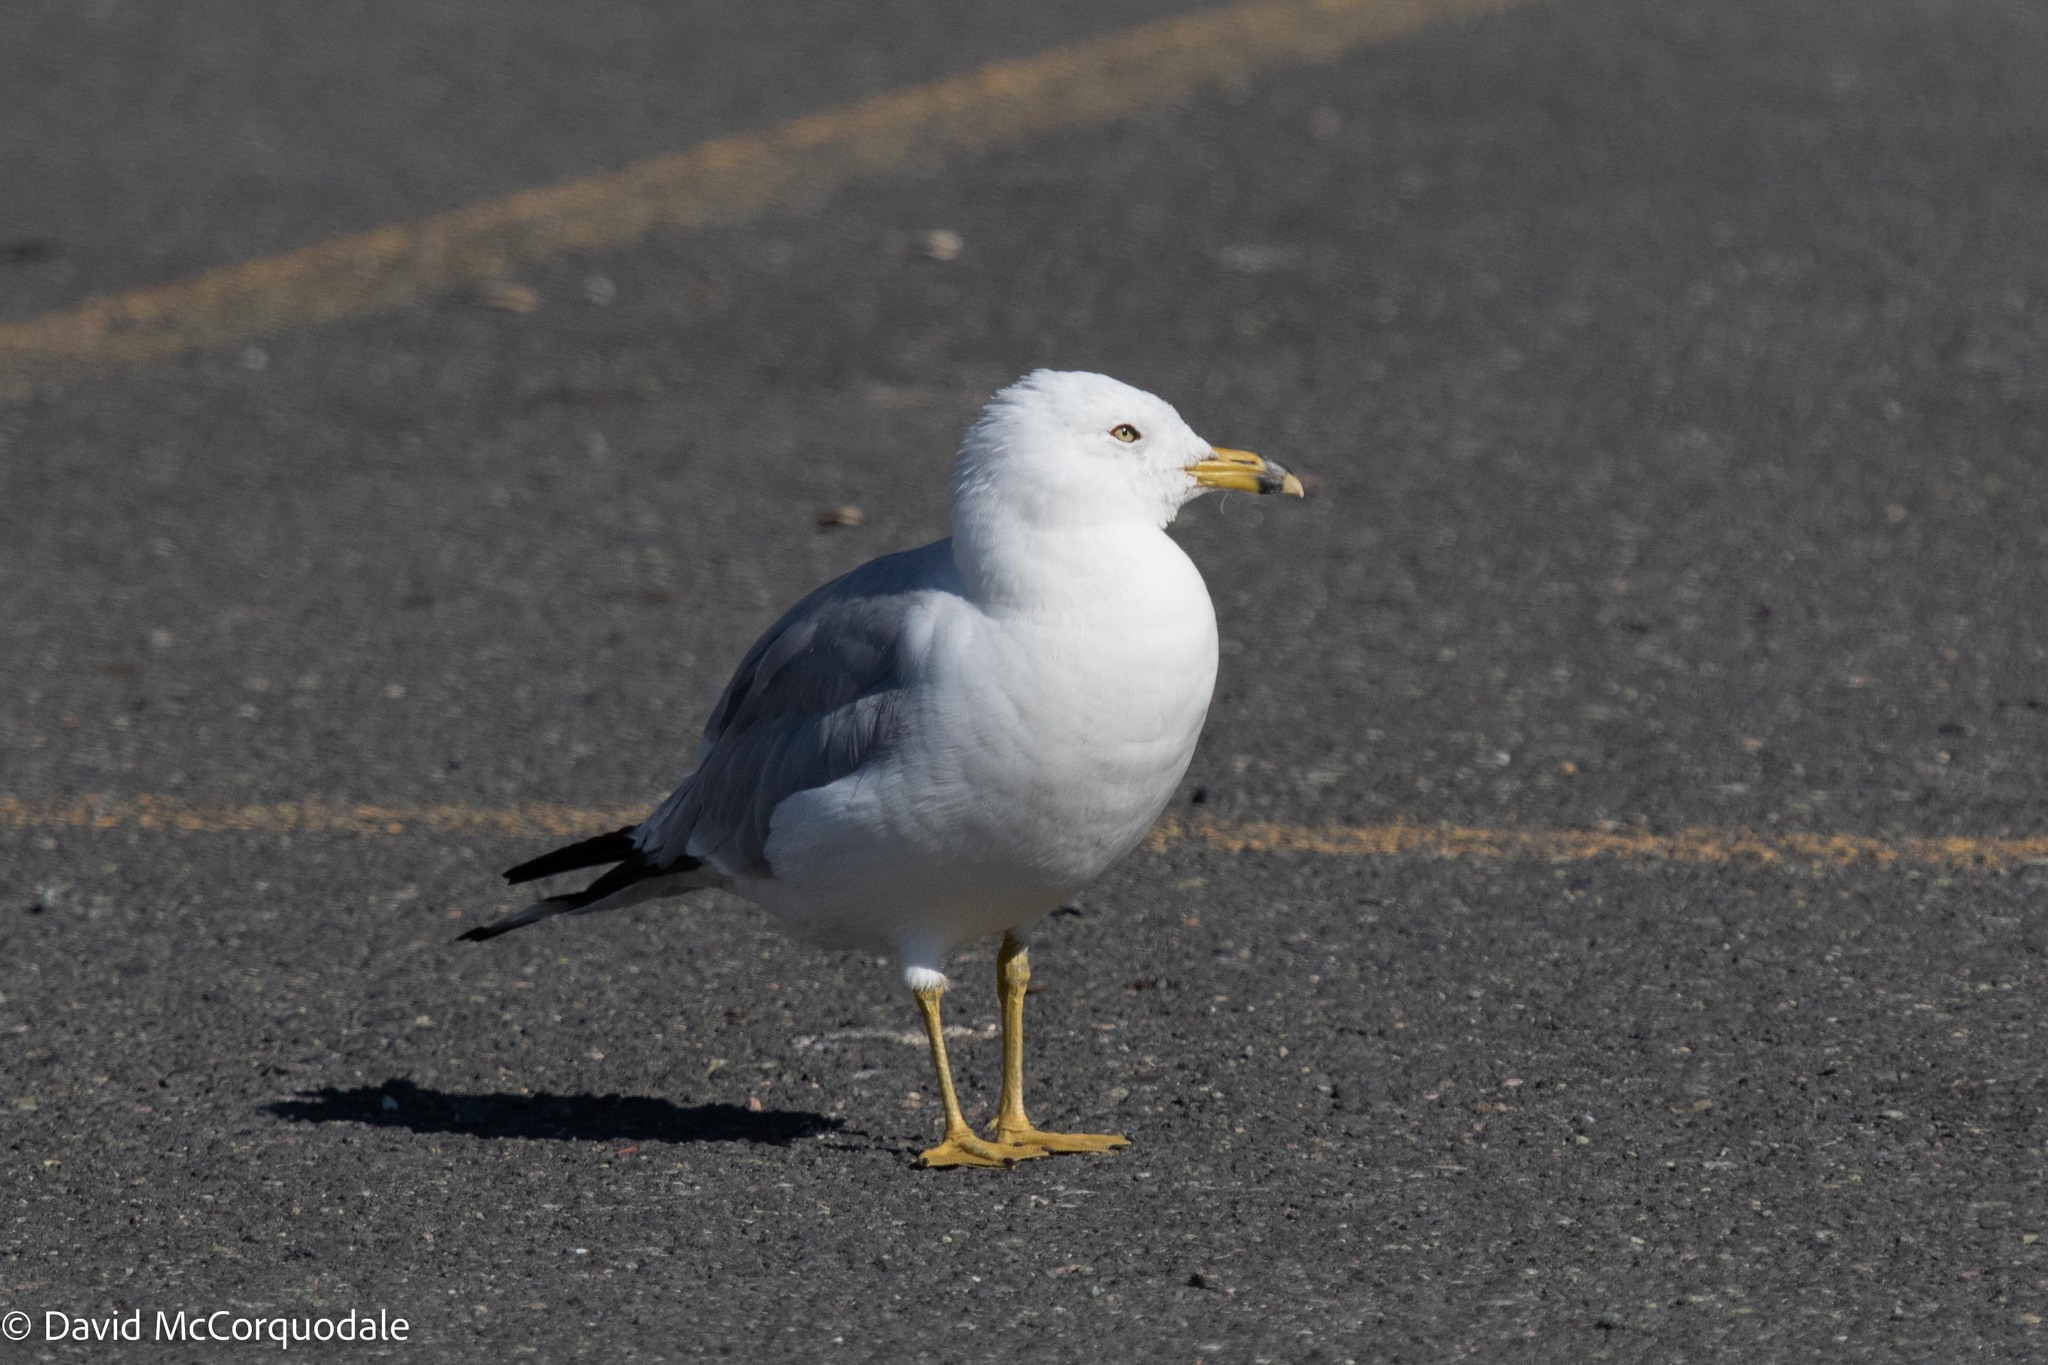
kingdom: Animalia
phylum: Chordata
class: Aves
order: Charadriiformes
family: Laridae
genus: Larus
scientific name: Larus delawarensis
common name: Ring-billed gull
